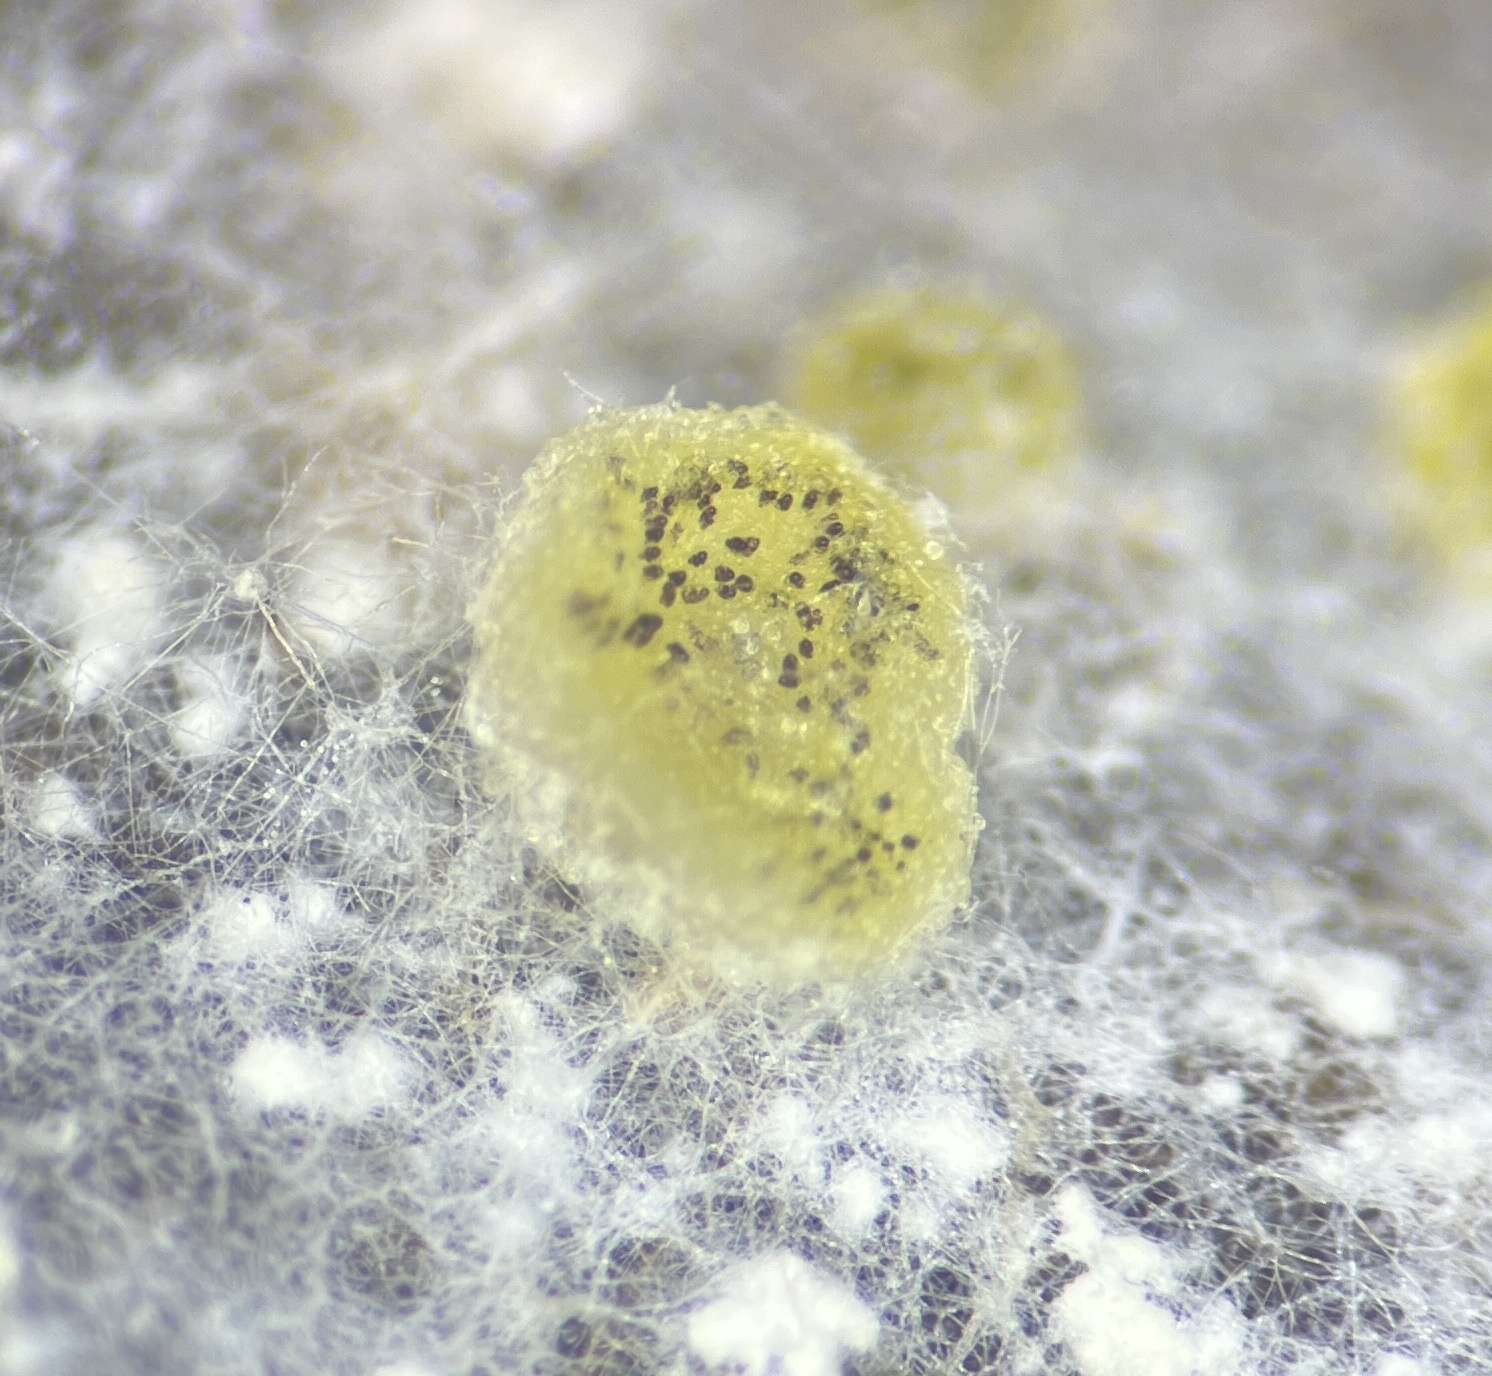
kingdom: Fungi
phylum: Ascomycota
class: Pezizomycetes
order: Pezizales
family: Ascobolaceae
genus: Ascobolus
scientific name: Ascobolus michaudii
